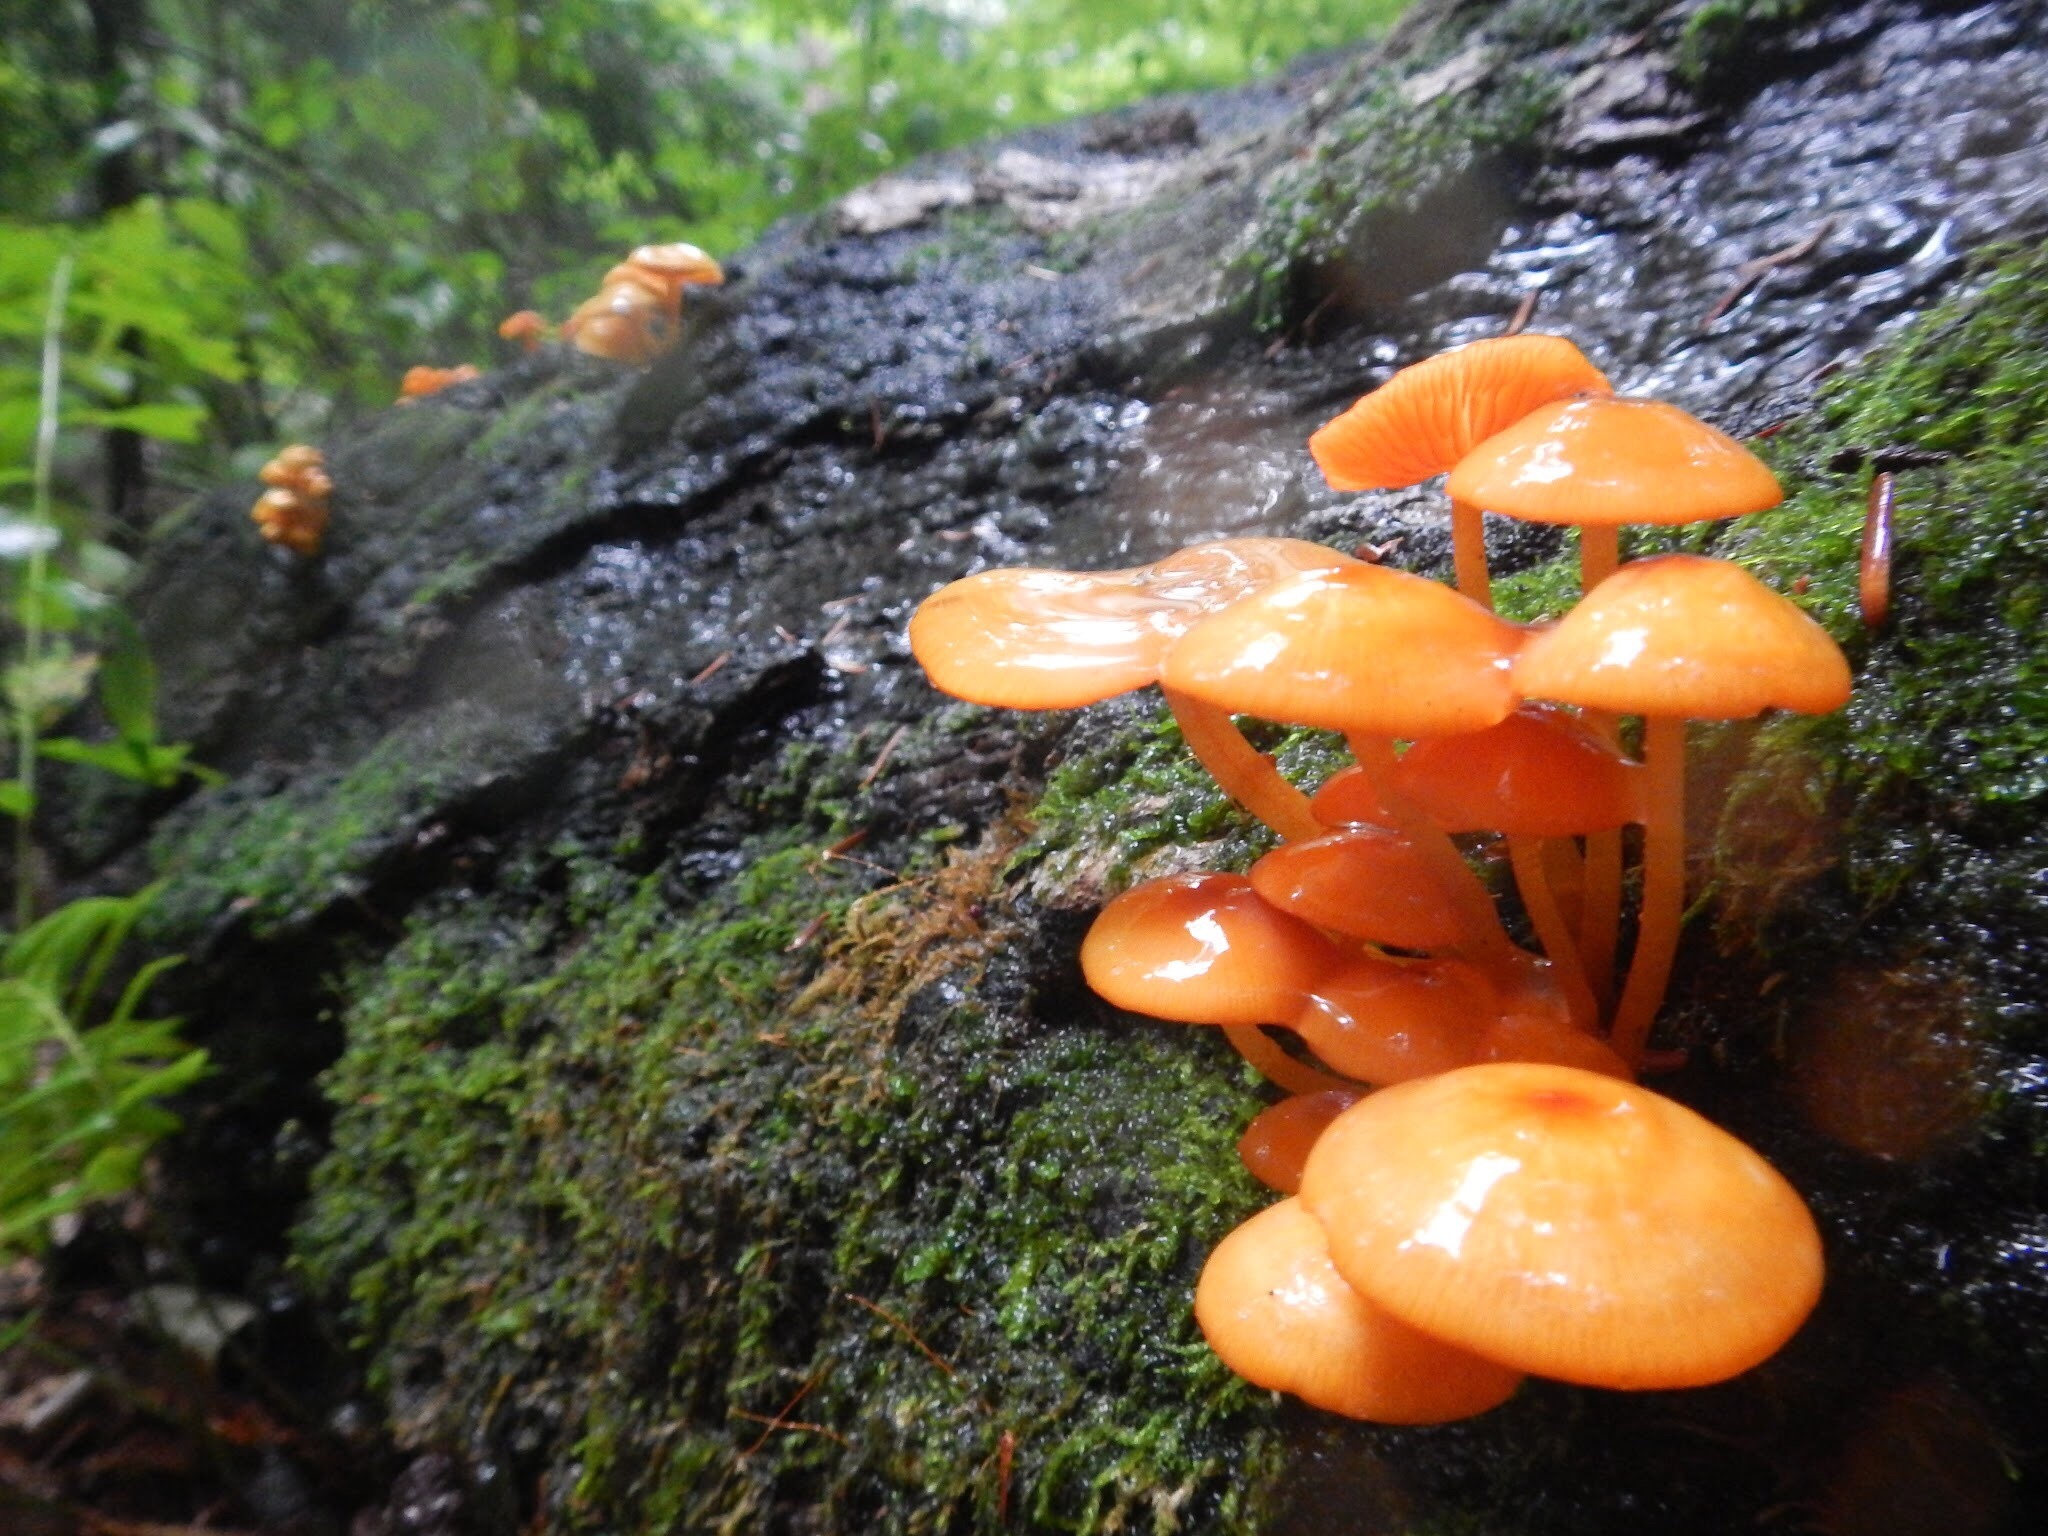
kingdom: Fungi
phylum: Basidiomycota
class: Agaricomycetes
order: Agaricales
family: Mycenaceae
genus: Mycena
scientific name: Mycena leaiana
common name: Orange mycena
